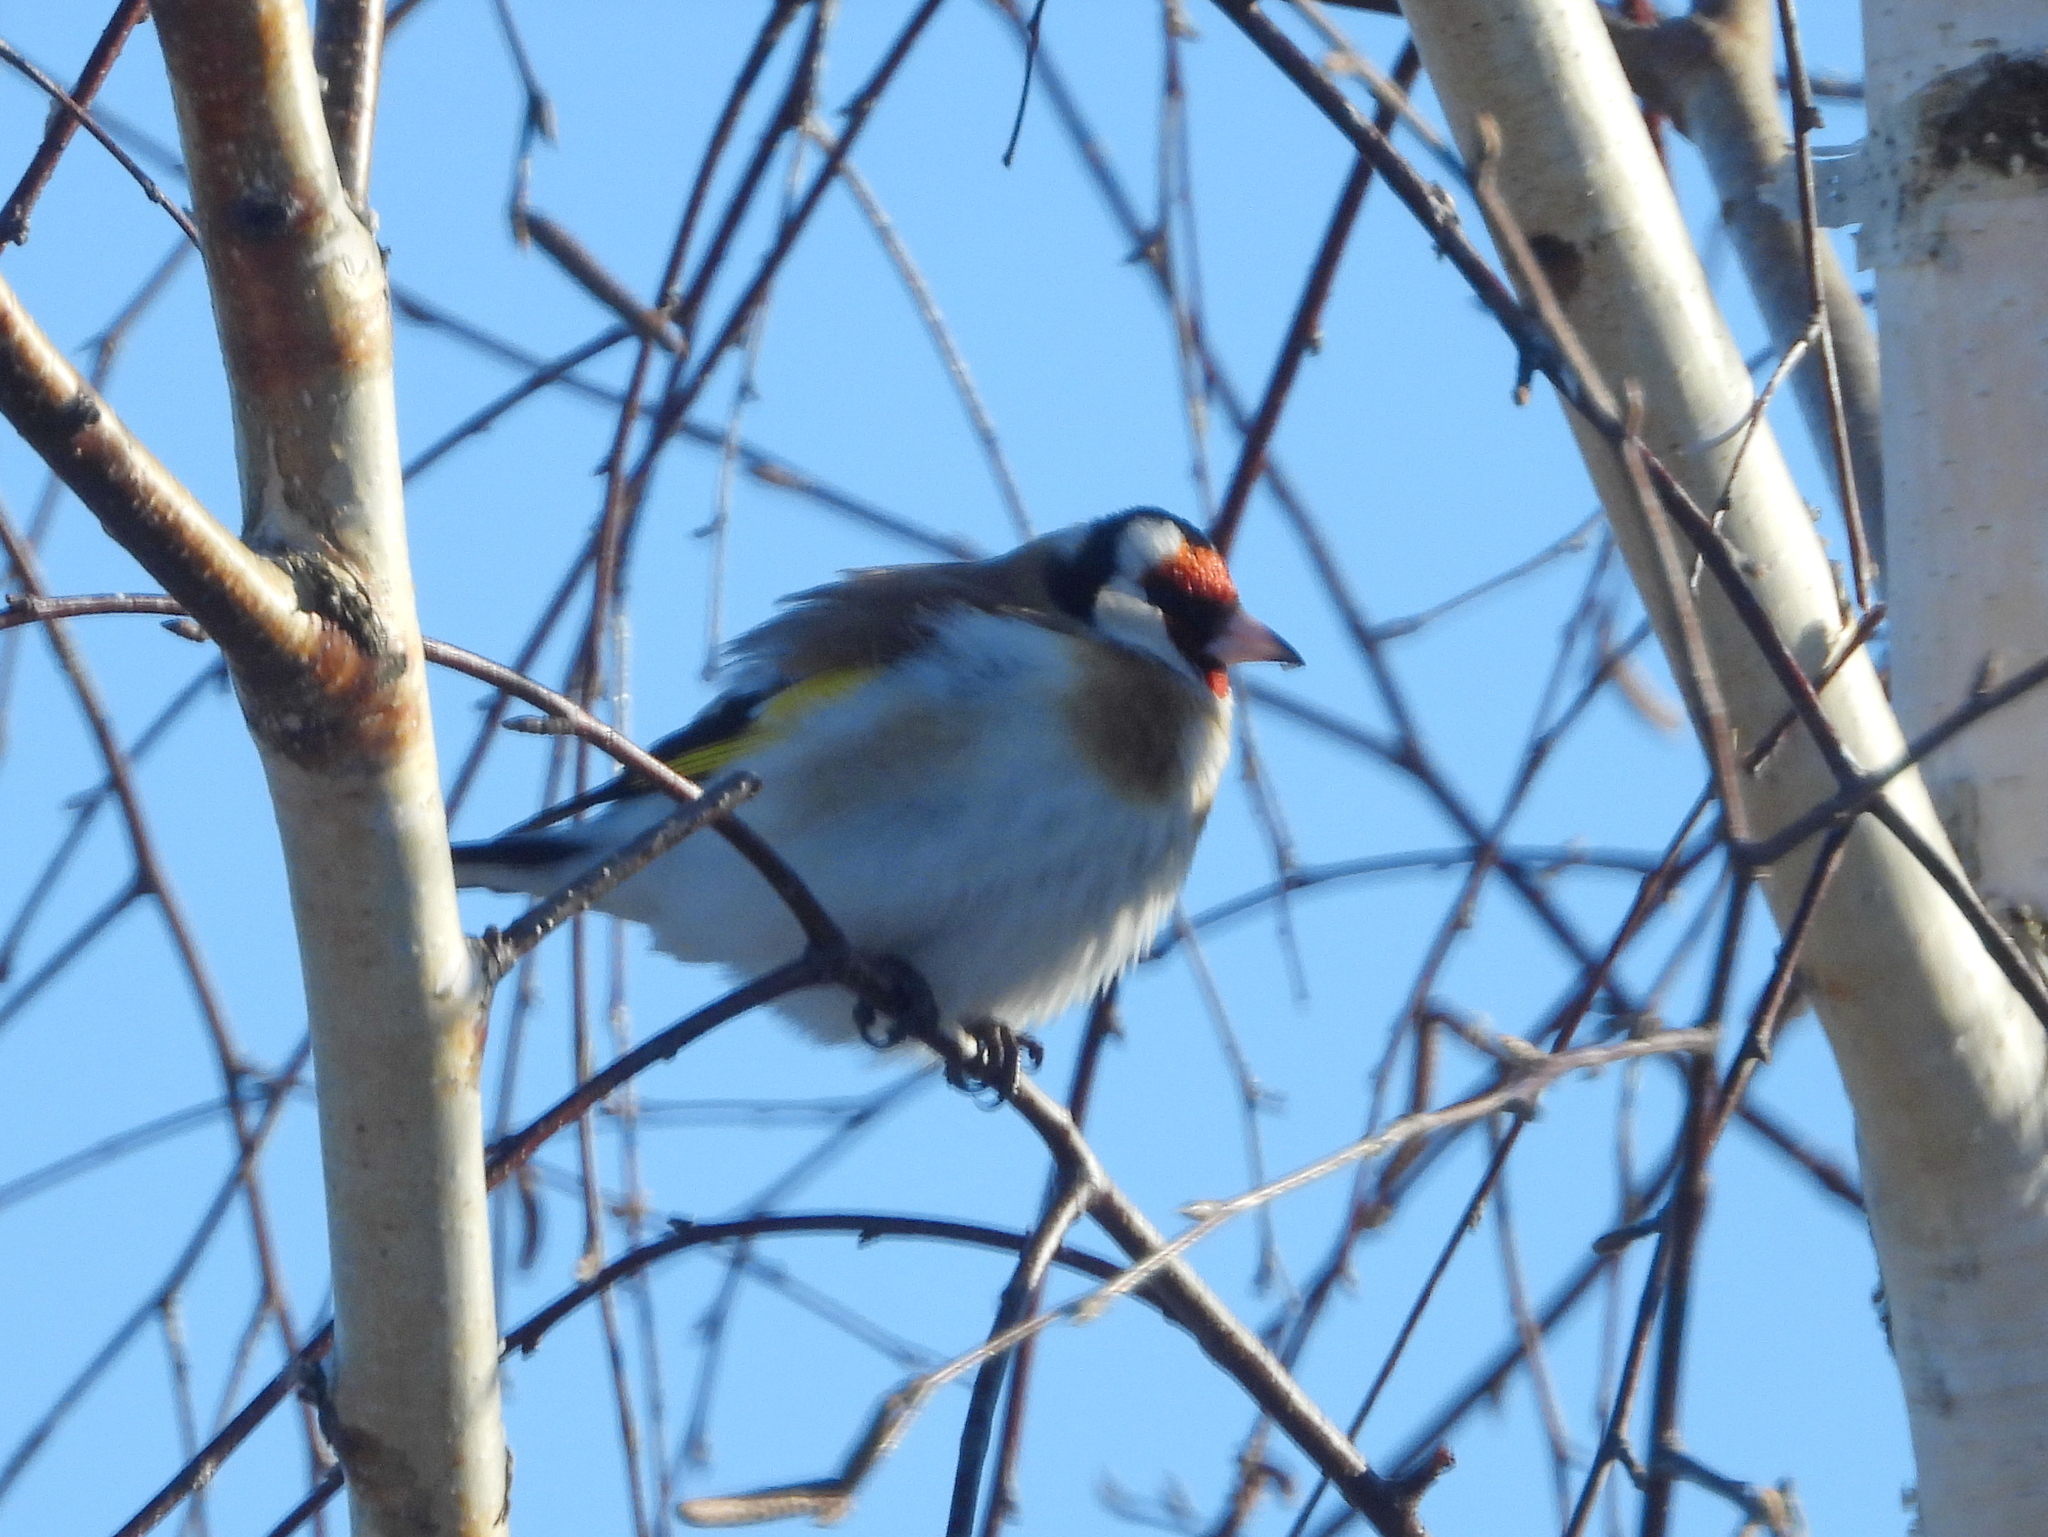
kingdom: Animalia
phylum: Chordata
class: Aves
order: Passeriformes
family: Fringillidae
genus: Carduelis
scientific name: Carduelis carduelis
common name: European goldfinch
